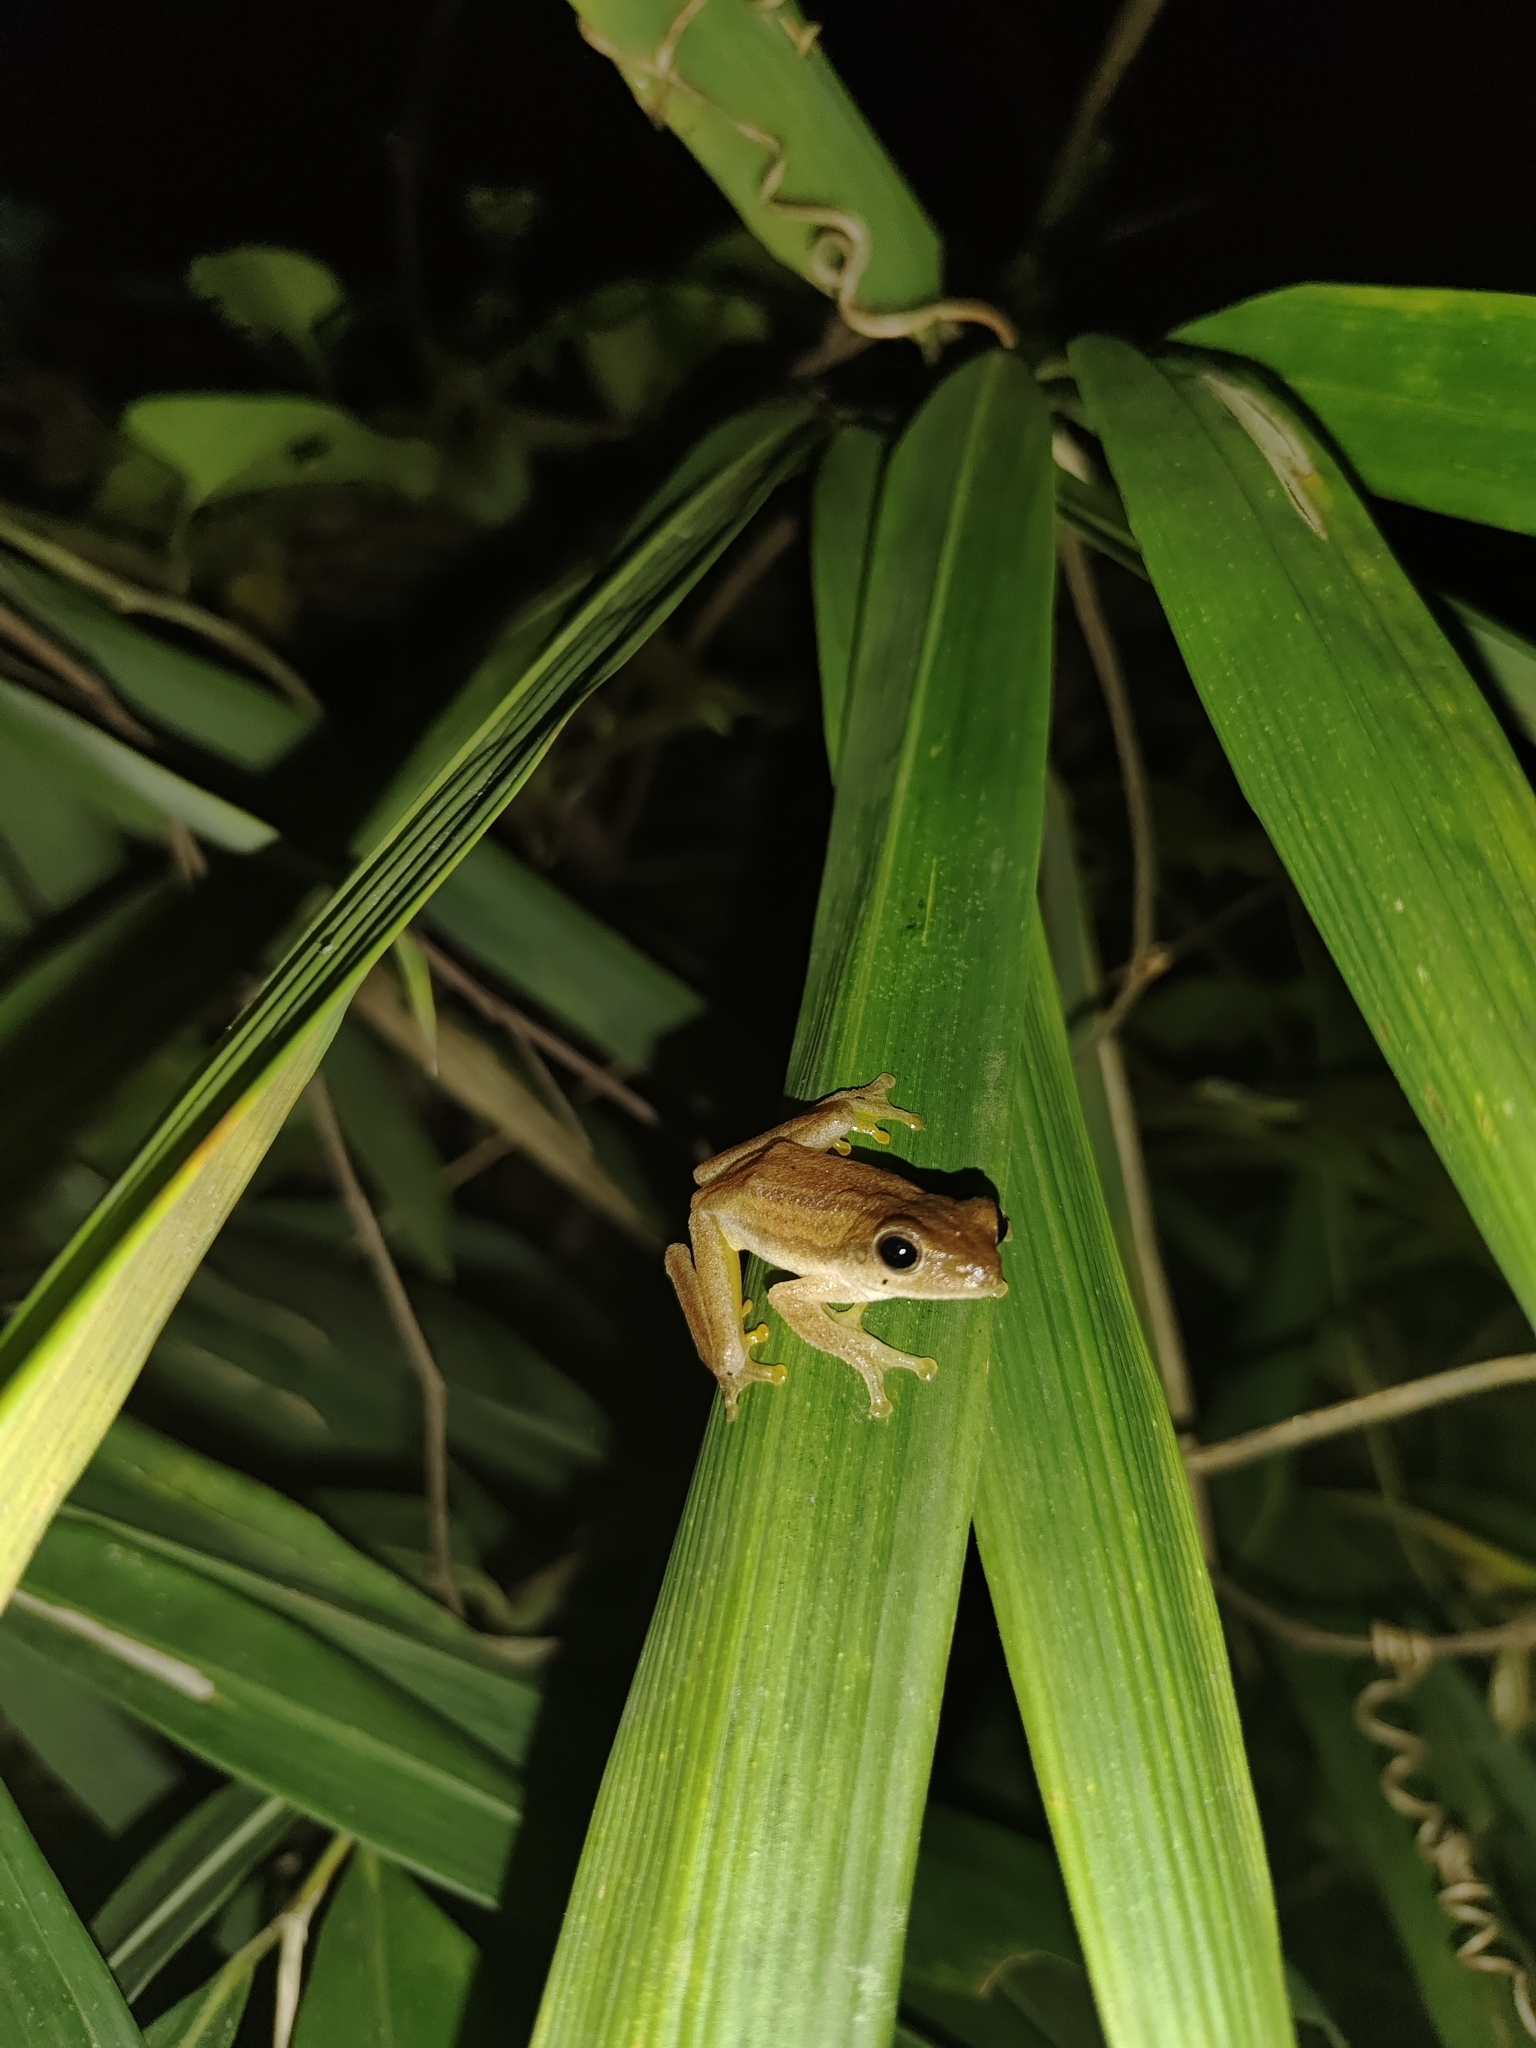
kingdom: Animalia
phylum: Chordata
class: Amphibia
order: Anura
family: Rhacophoridae
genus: Polypedates
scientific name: Polypedates leucomystax
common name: Common tree frog/four-lined tree frog
